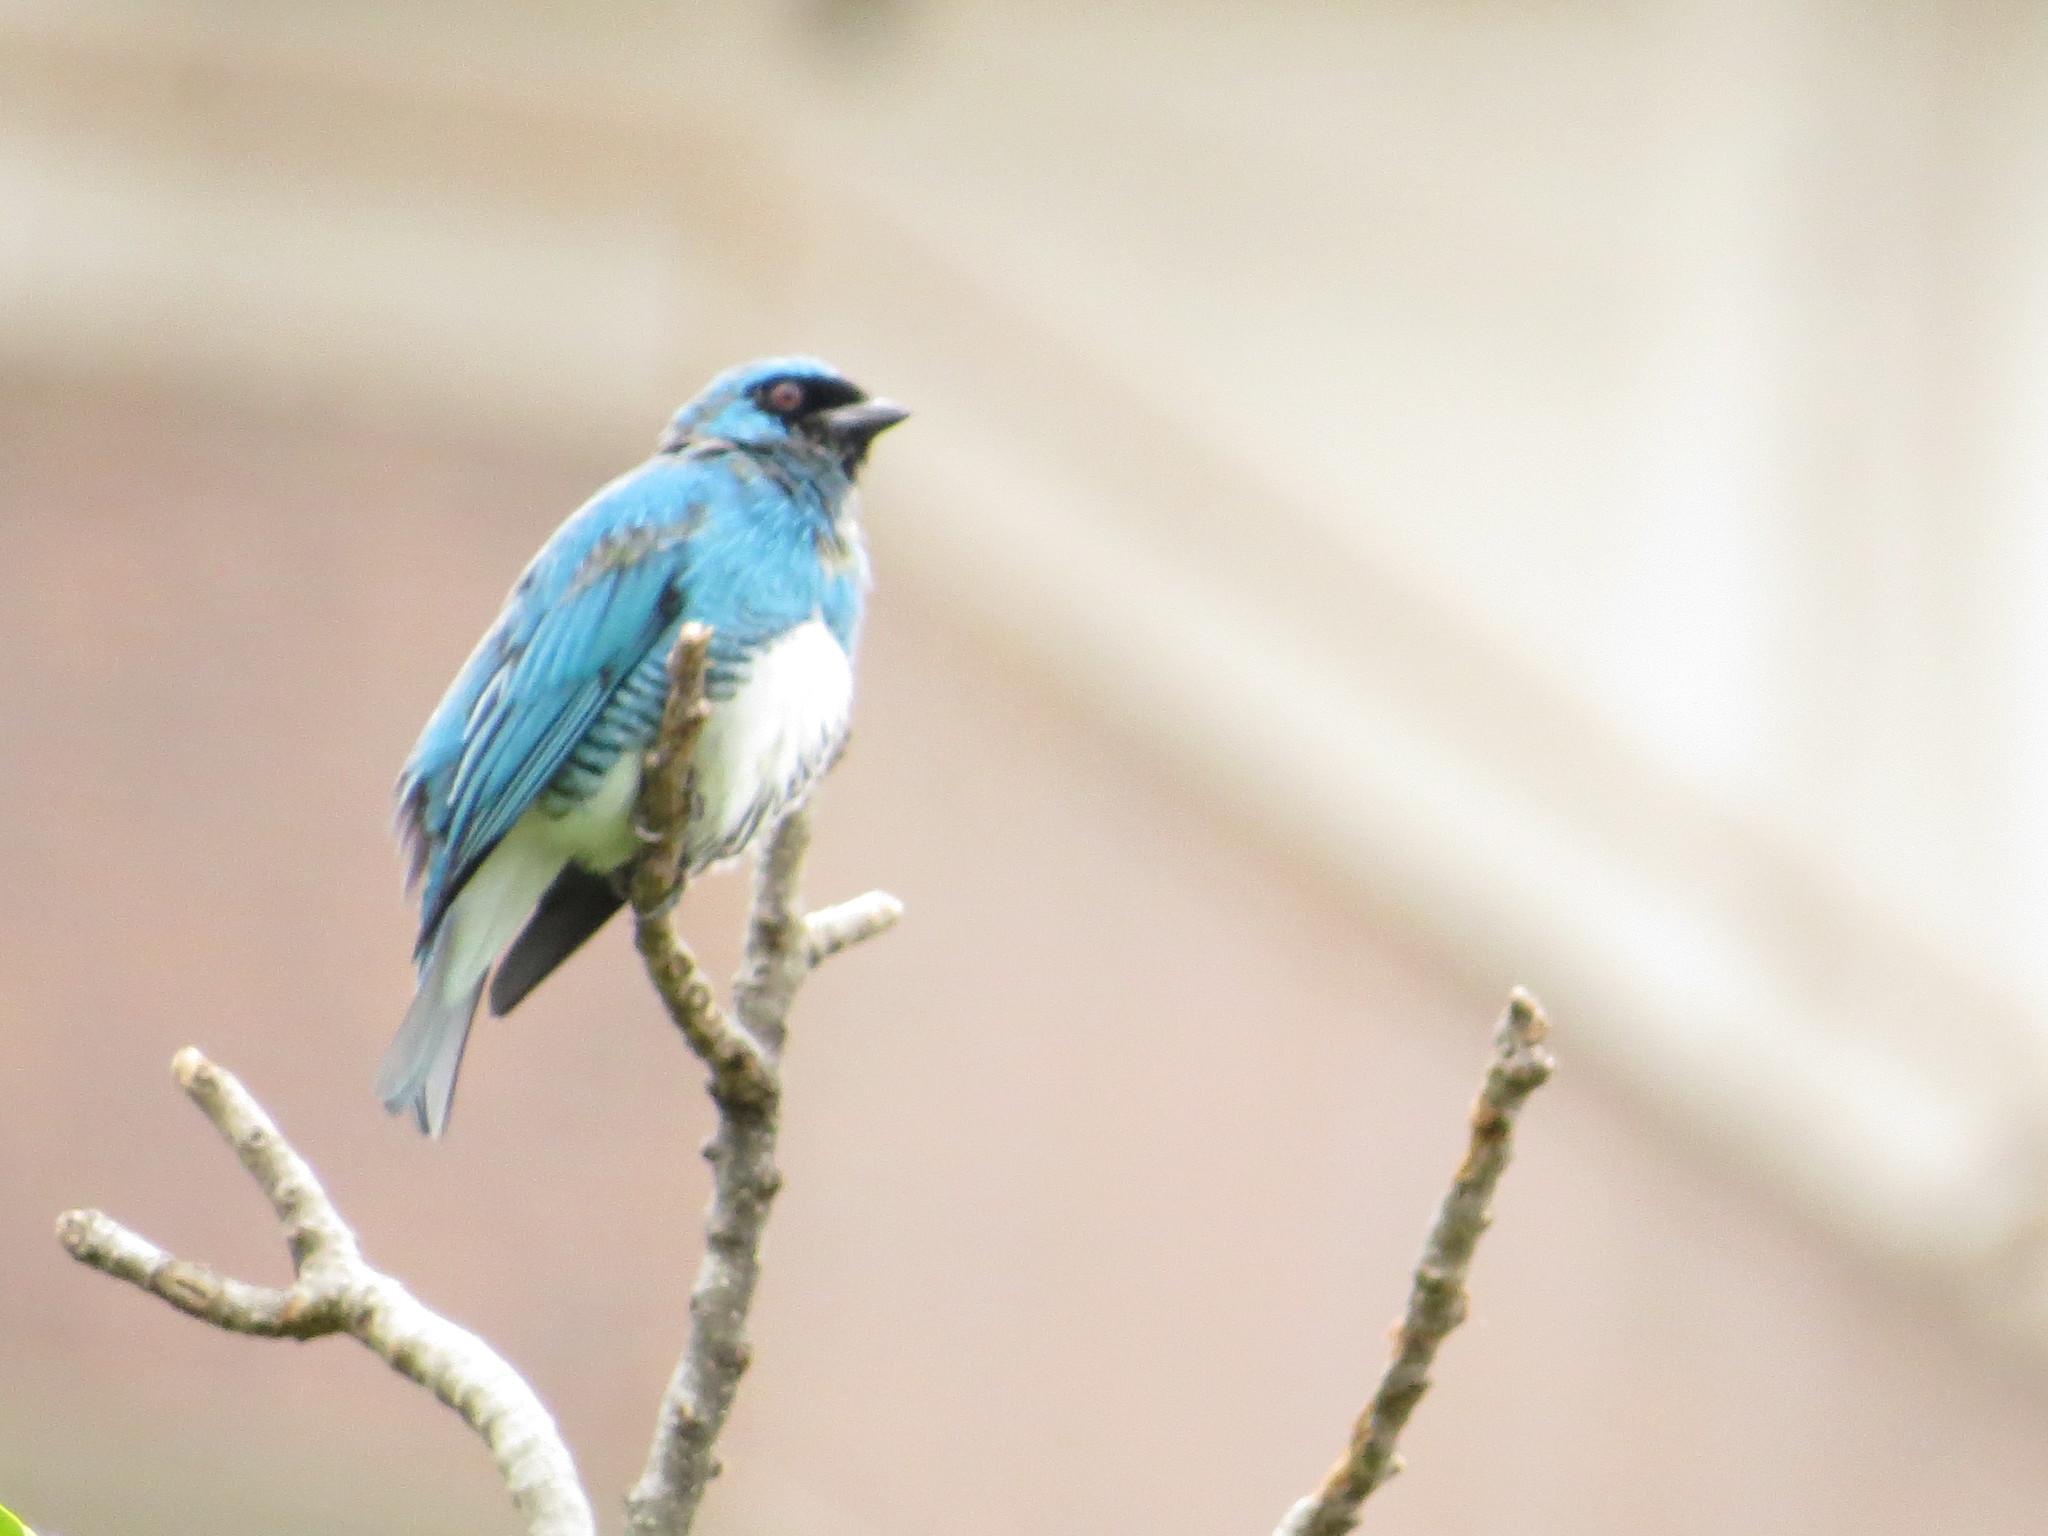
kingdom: Animalia
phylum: Chordata
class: Aves
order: Passeriformes
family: Thraupidae
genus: Tersina
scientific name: Tersina viridis
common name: Swallow tanager
